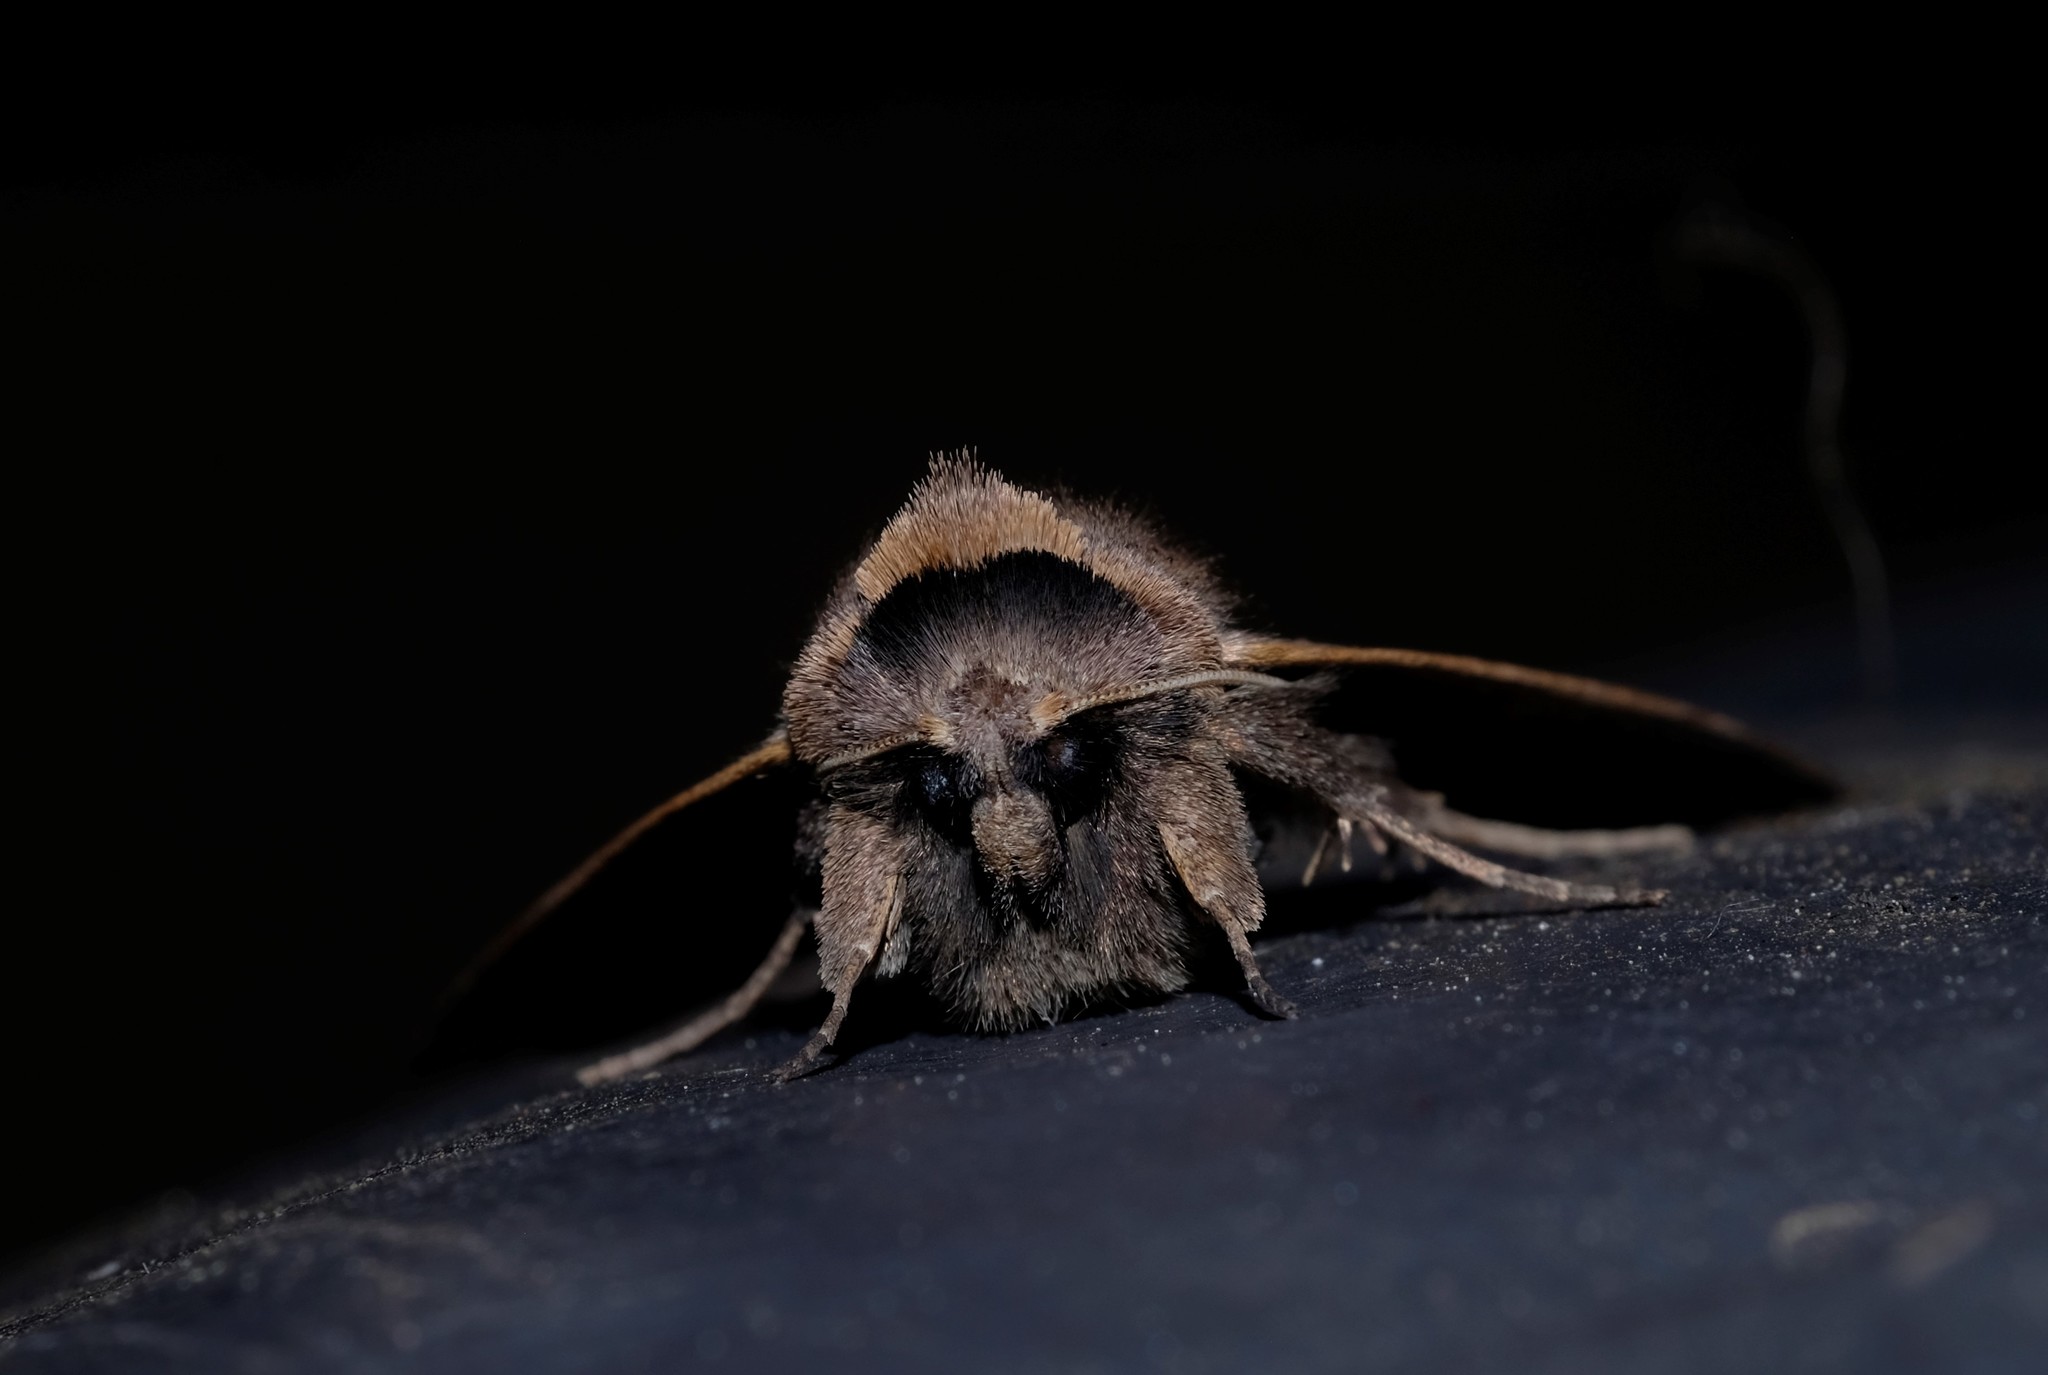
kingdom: Animalia
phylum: Arthropoda
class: Insecta
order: Lepidoptera
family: Erebidae
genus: Pantydia
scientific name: Pantydia diemeni
